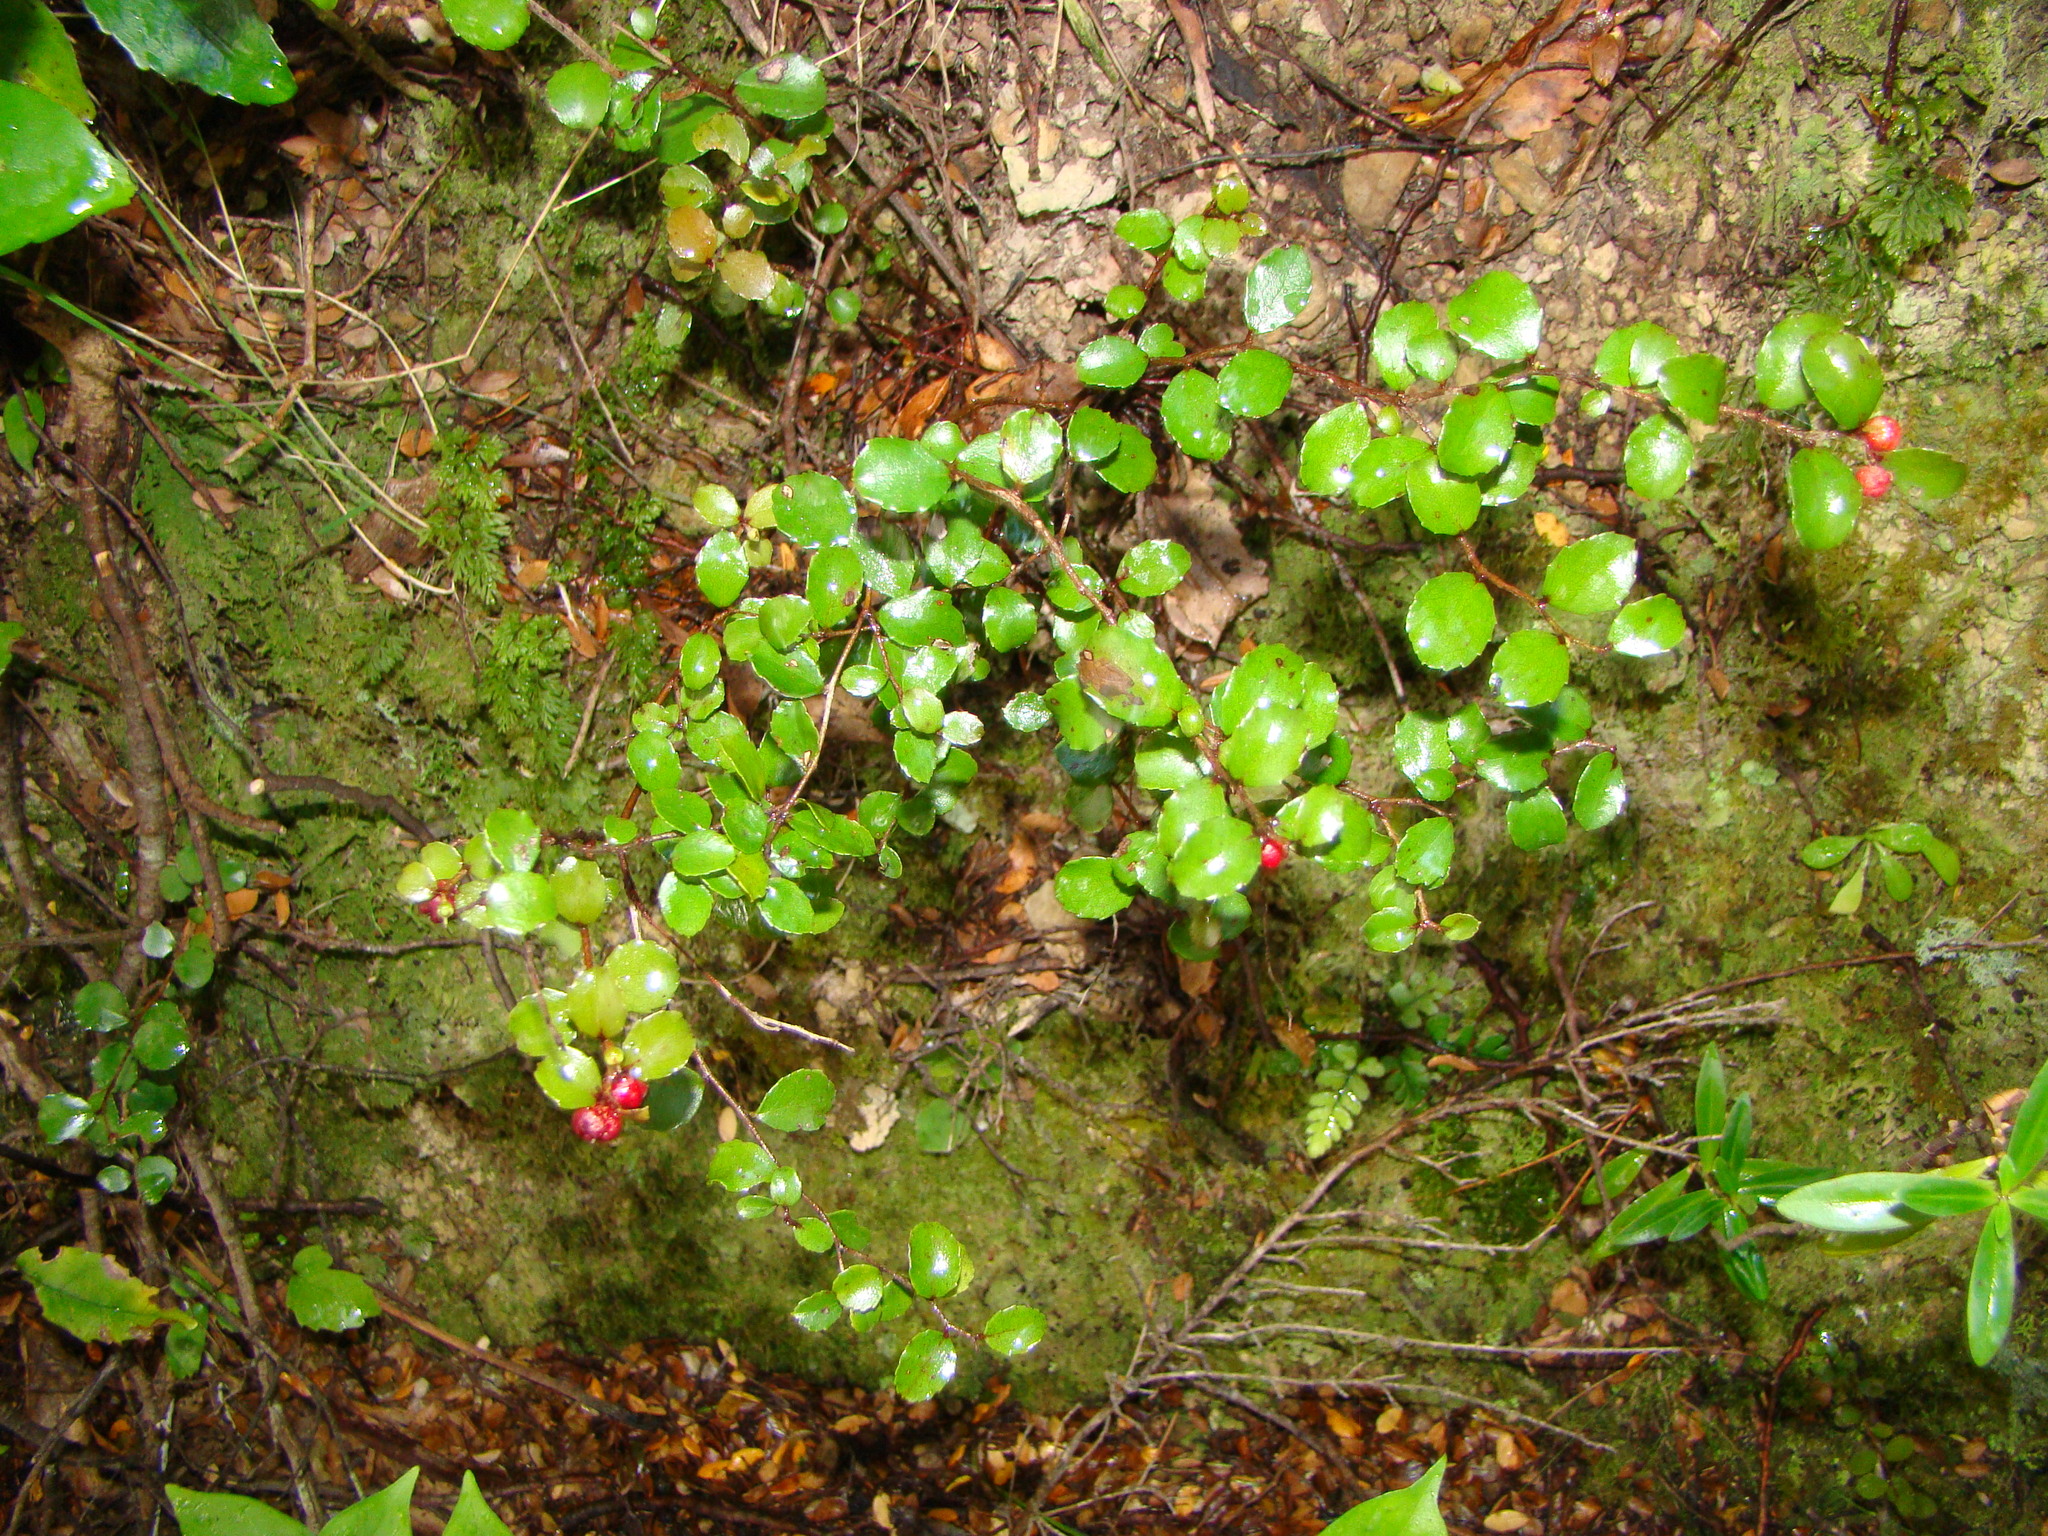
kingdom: Plantae
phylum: Tracheophyta
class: Magnoliopsida
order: Ericales
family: Ericaceae
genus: Gaultheria
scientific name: Gaultheria antipoda
